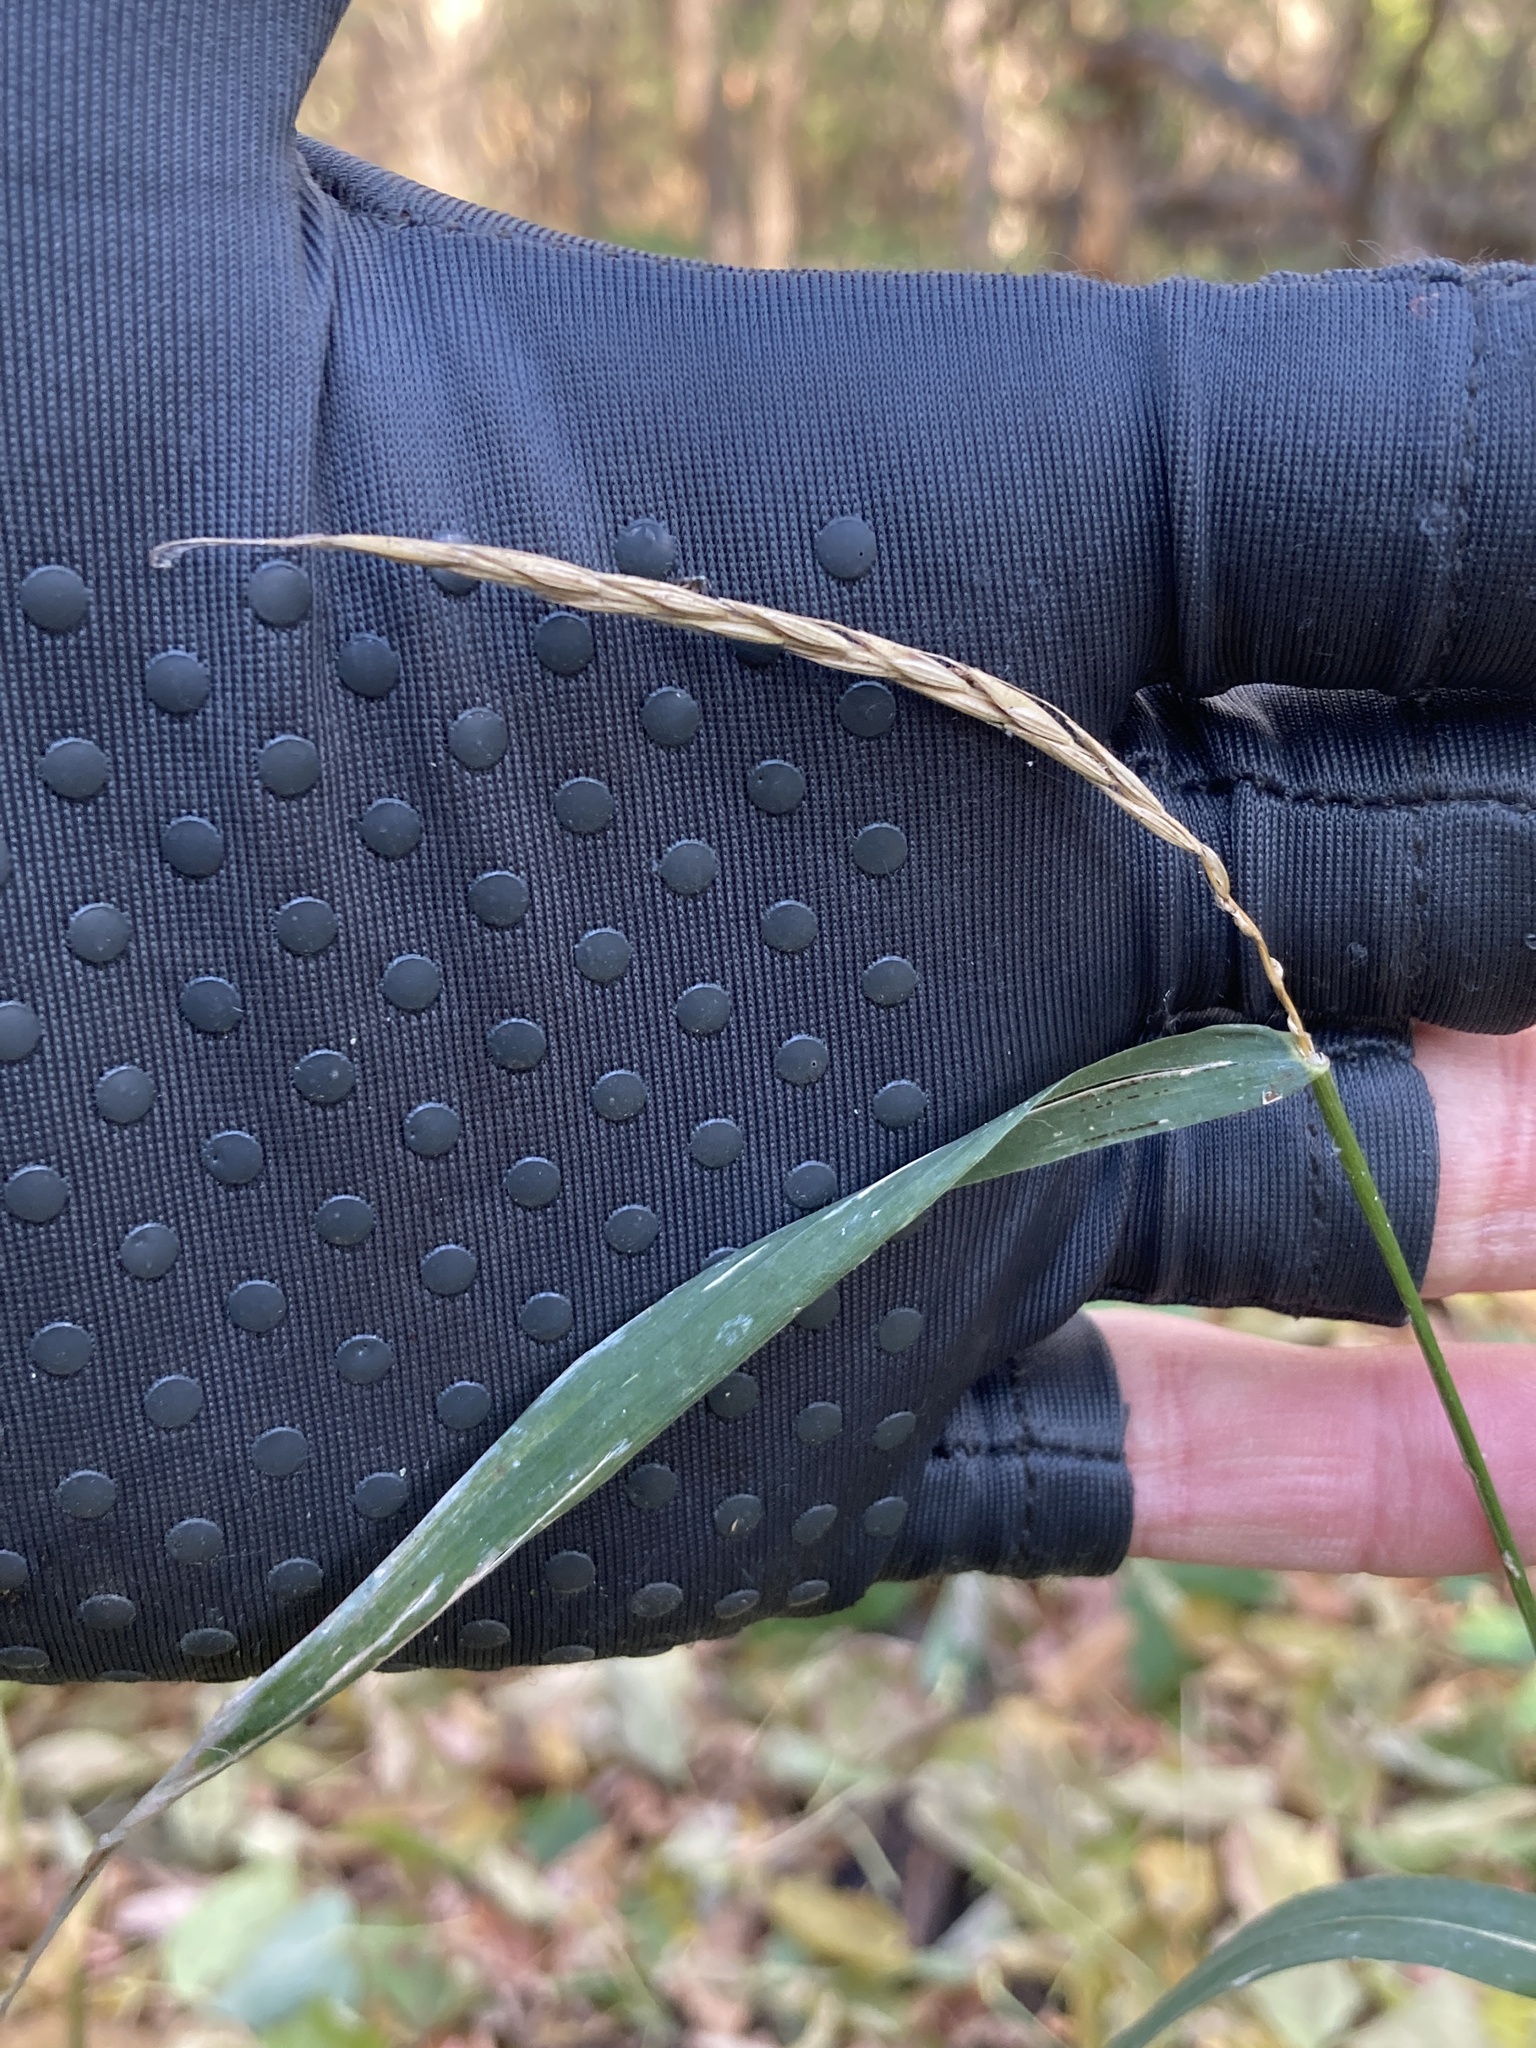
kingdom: Plantae
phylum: Tracheophyta
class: Liliopsida
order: Poales
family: Poaceae
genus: Elymus
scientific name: Elymus caninus
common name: Bearded couch
